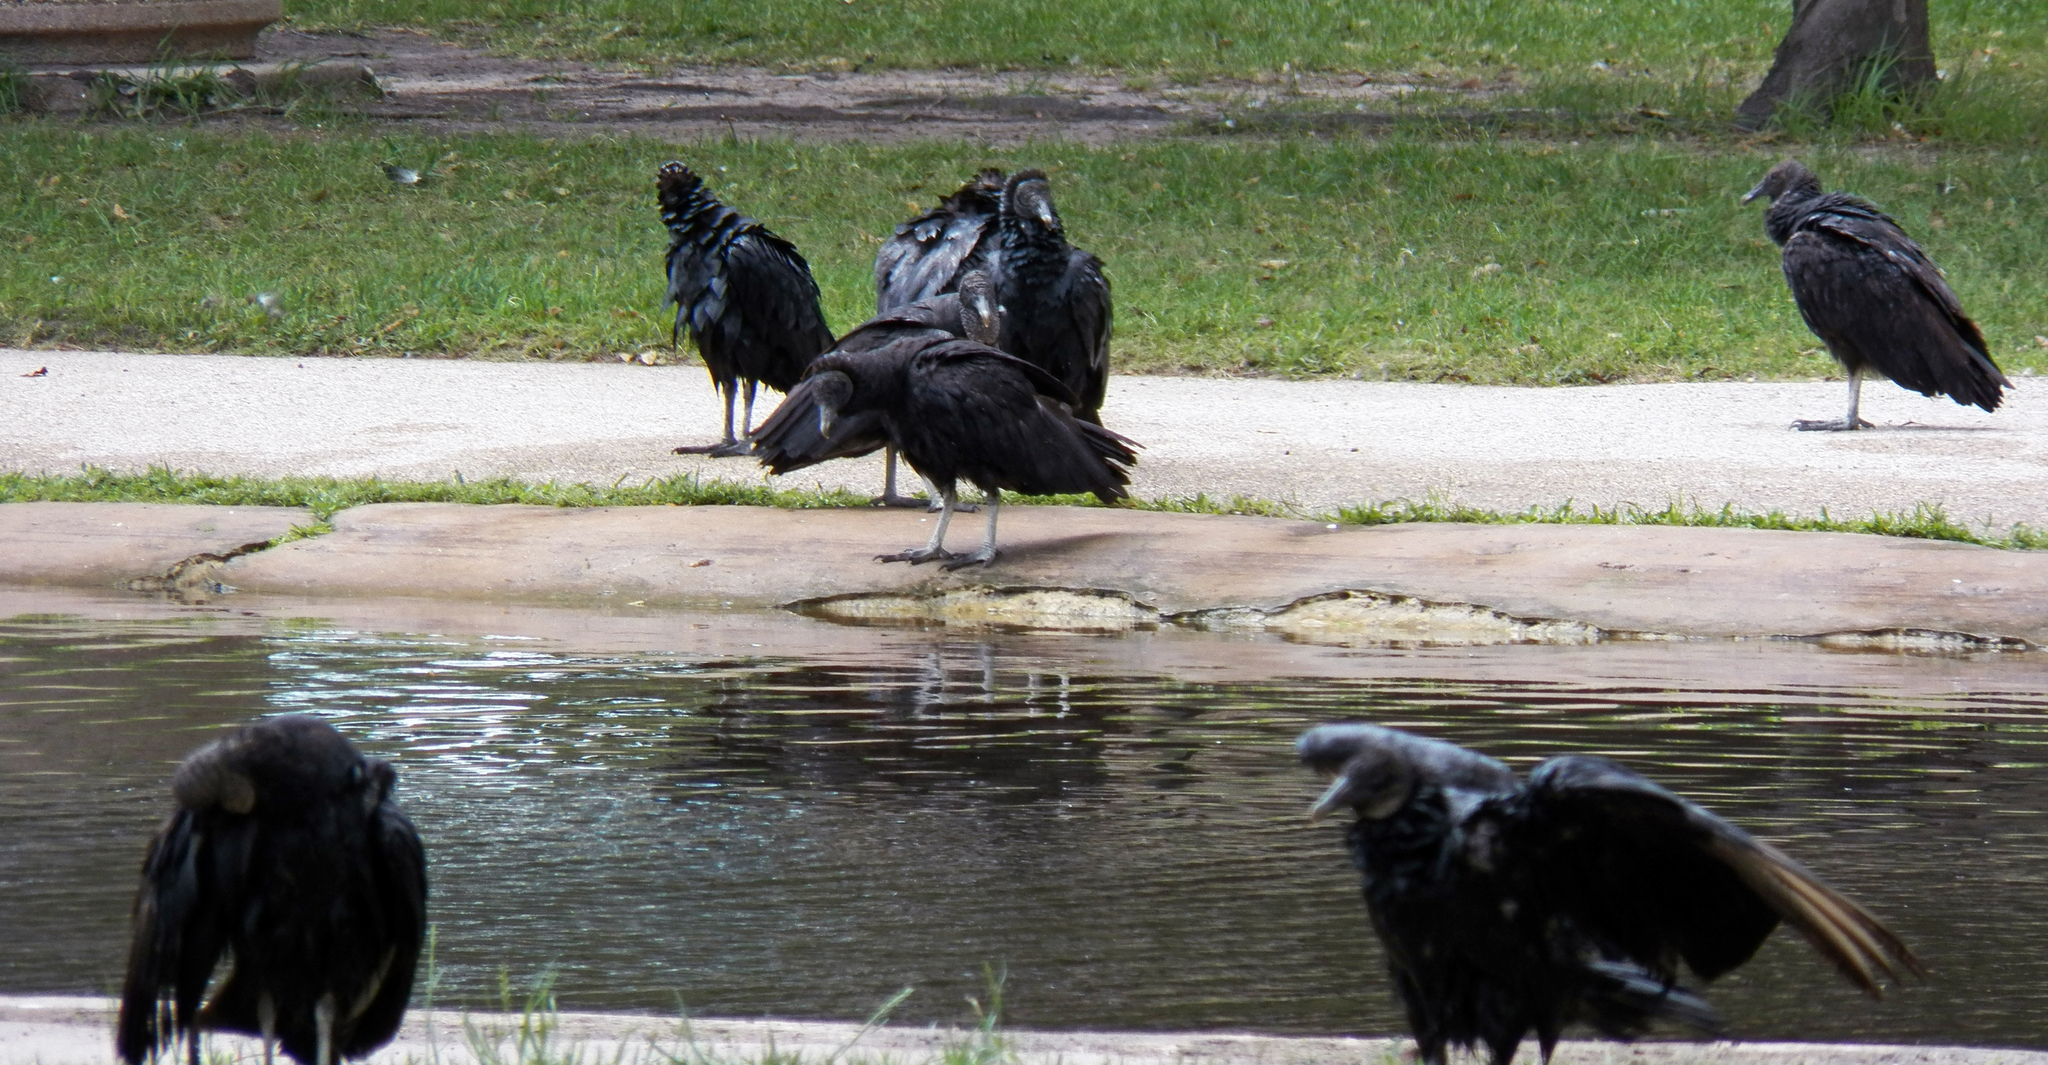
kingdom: Animalia
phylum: Chordata
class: Aves
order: Accipitriformes
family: Cathartidae
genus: Coragyps
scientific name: Coragyps atratus
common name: Black vulture
